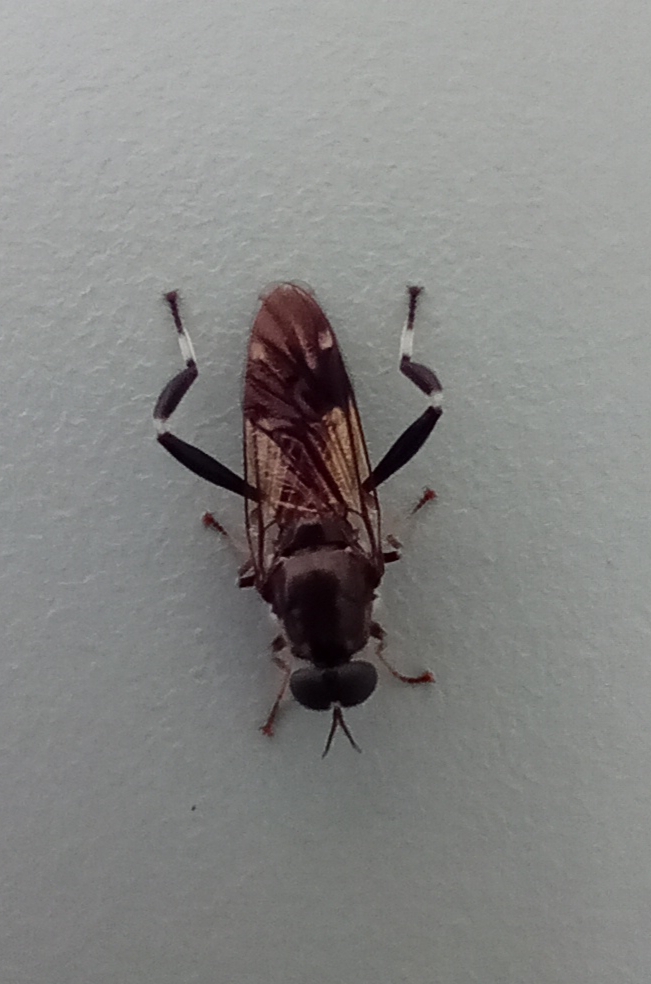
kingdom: Animalia
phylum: Arthropoda
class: Insecta
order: Diptera
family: Stratiomyidae
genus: Exaireta
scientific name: Exaireta spinigera
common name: Blue soldier fly
